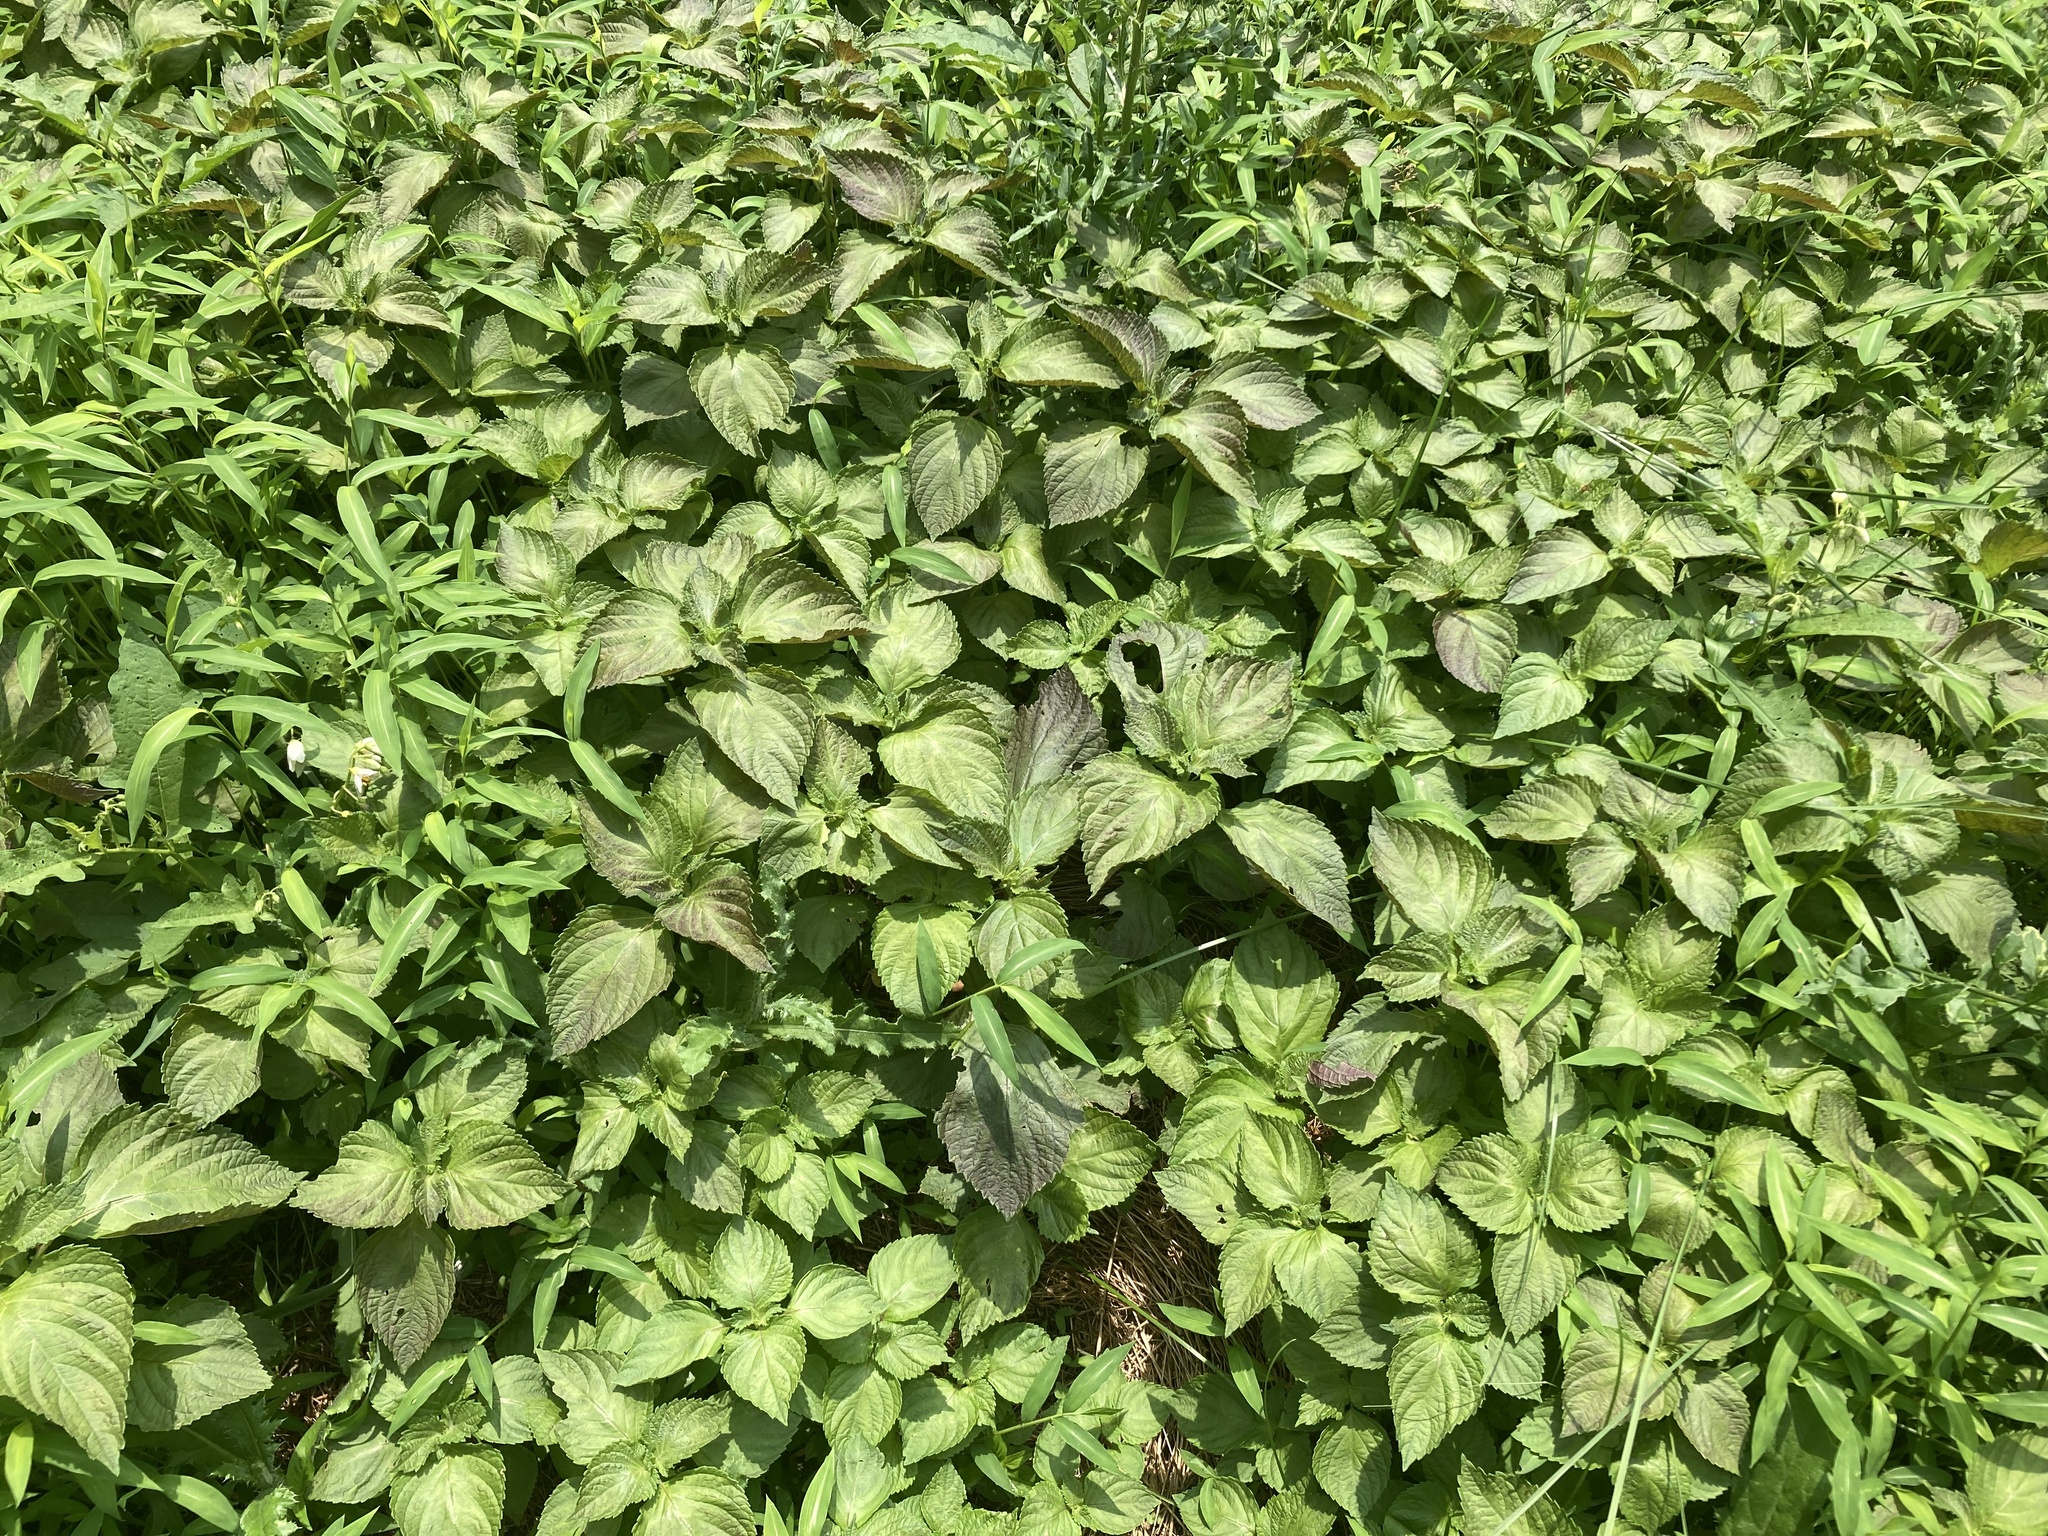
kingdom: Plantae
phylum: Tracheophyta
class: Magnoliopsida
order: Lamiales
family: Lamiaceae
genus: Perilla
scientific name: Perilla frutescens
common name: Perilla
